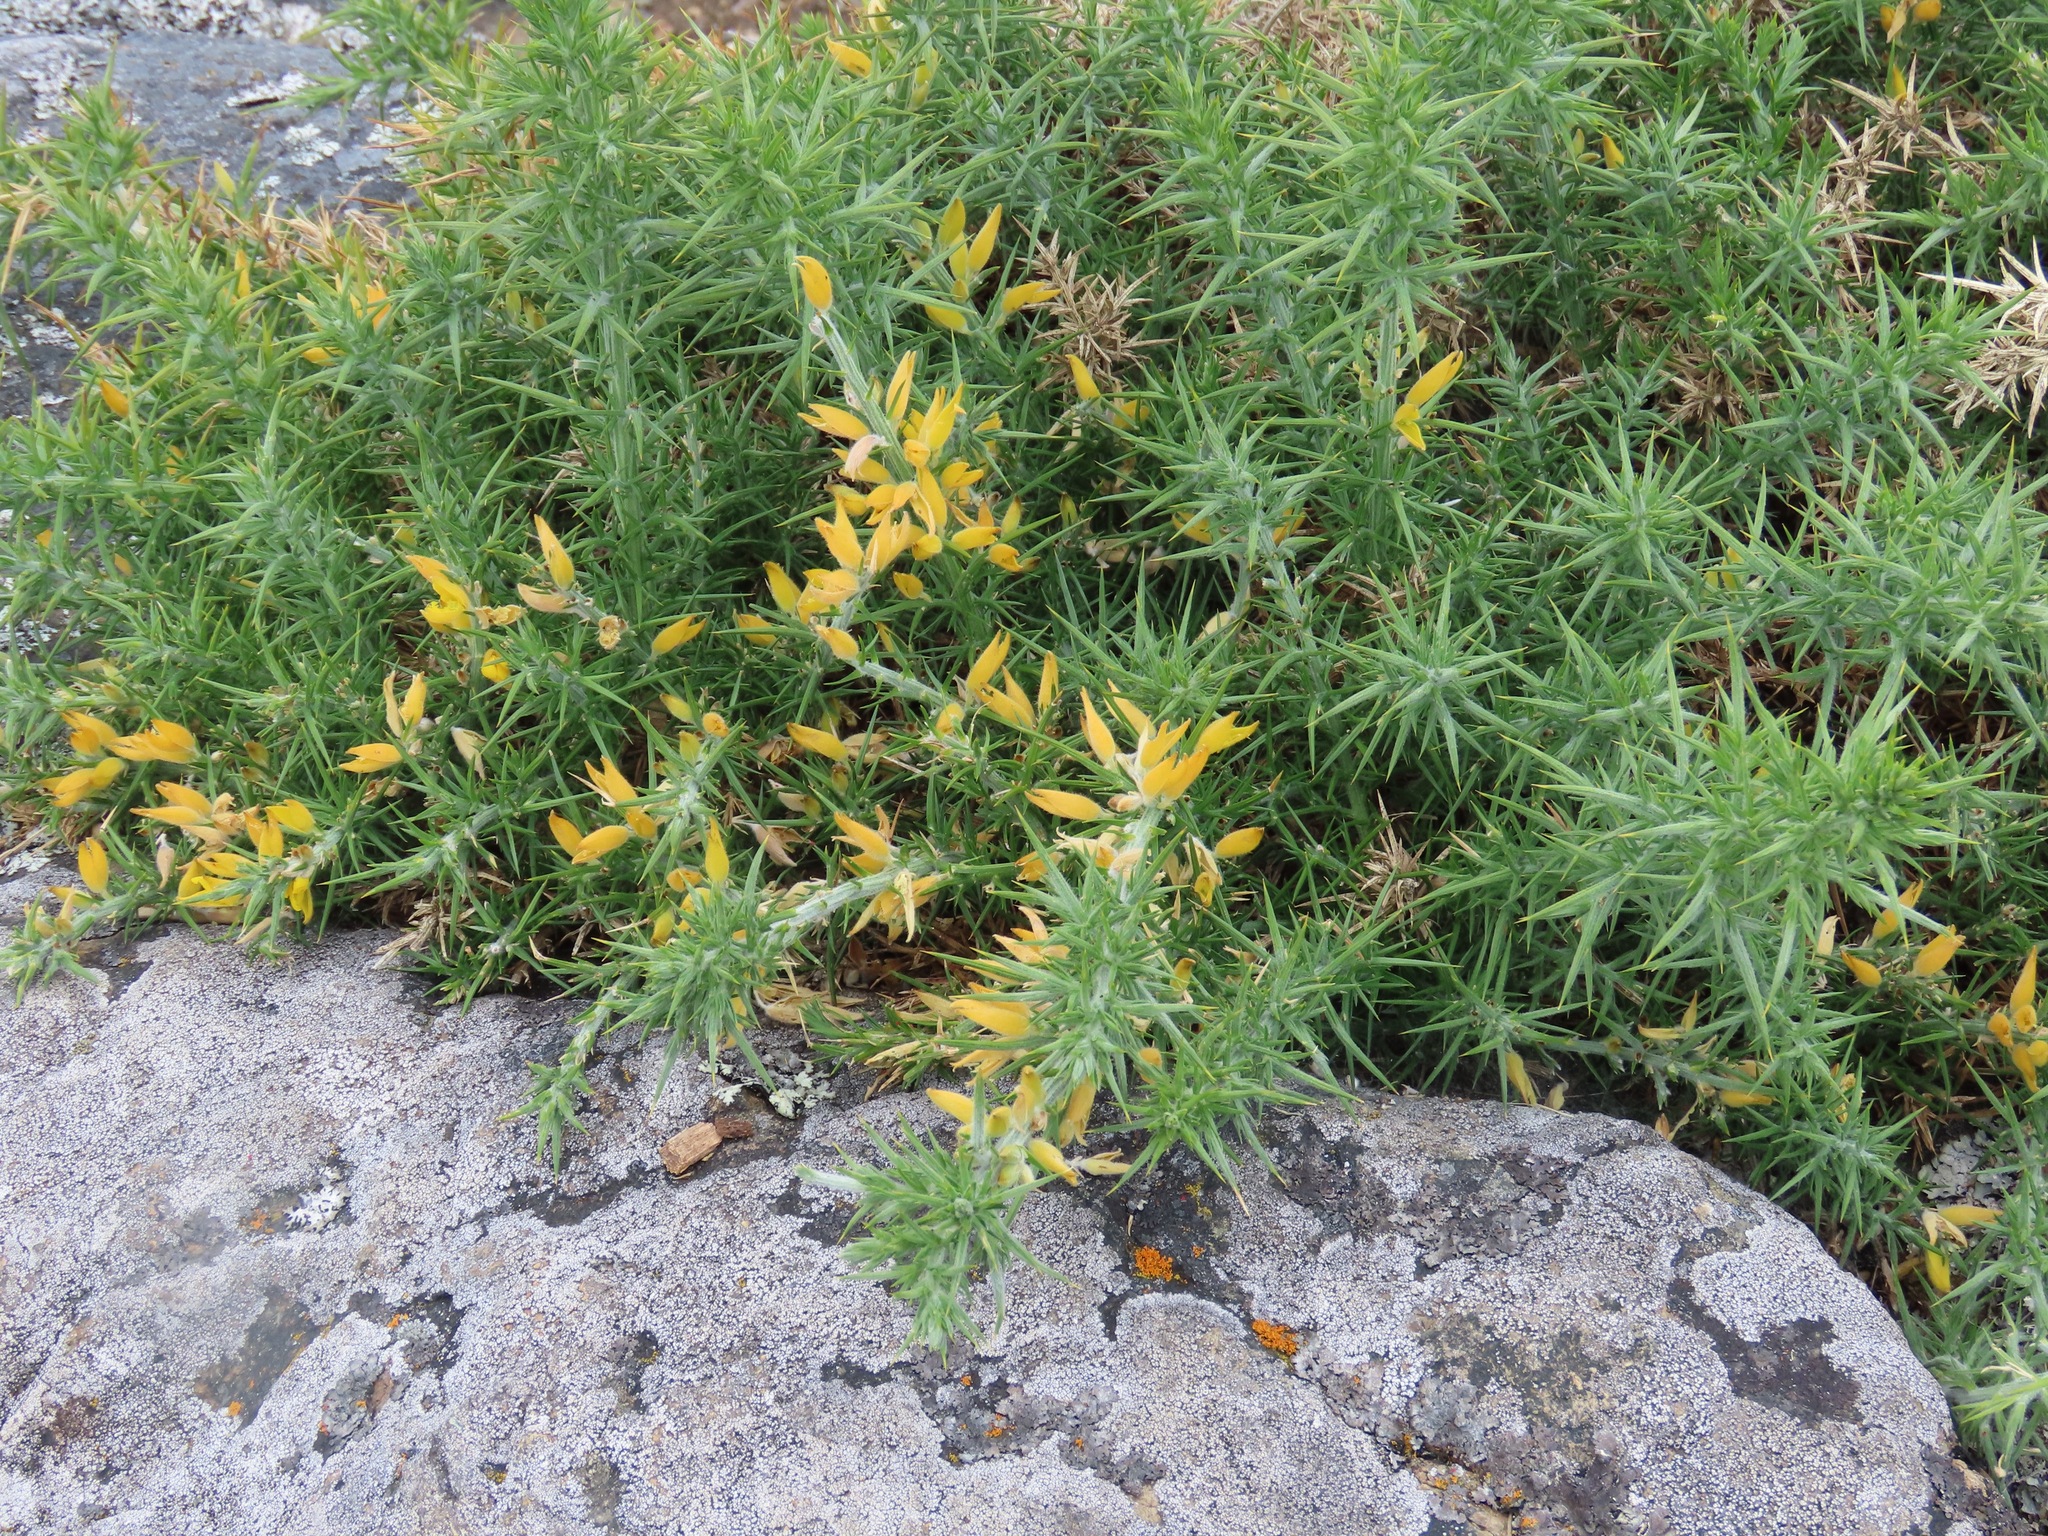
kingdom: Plantae
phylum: Tracheophyta
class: Magnoliopsida
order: Fabales
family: Fabaceae
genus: Ulex
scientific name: Ulex europaeus
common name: Common gorse
